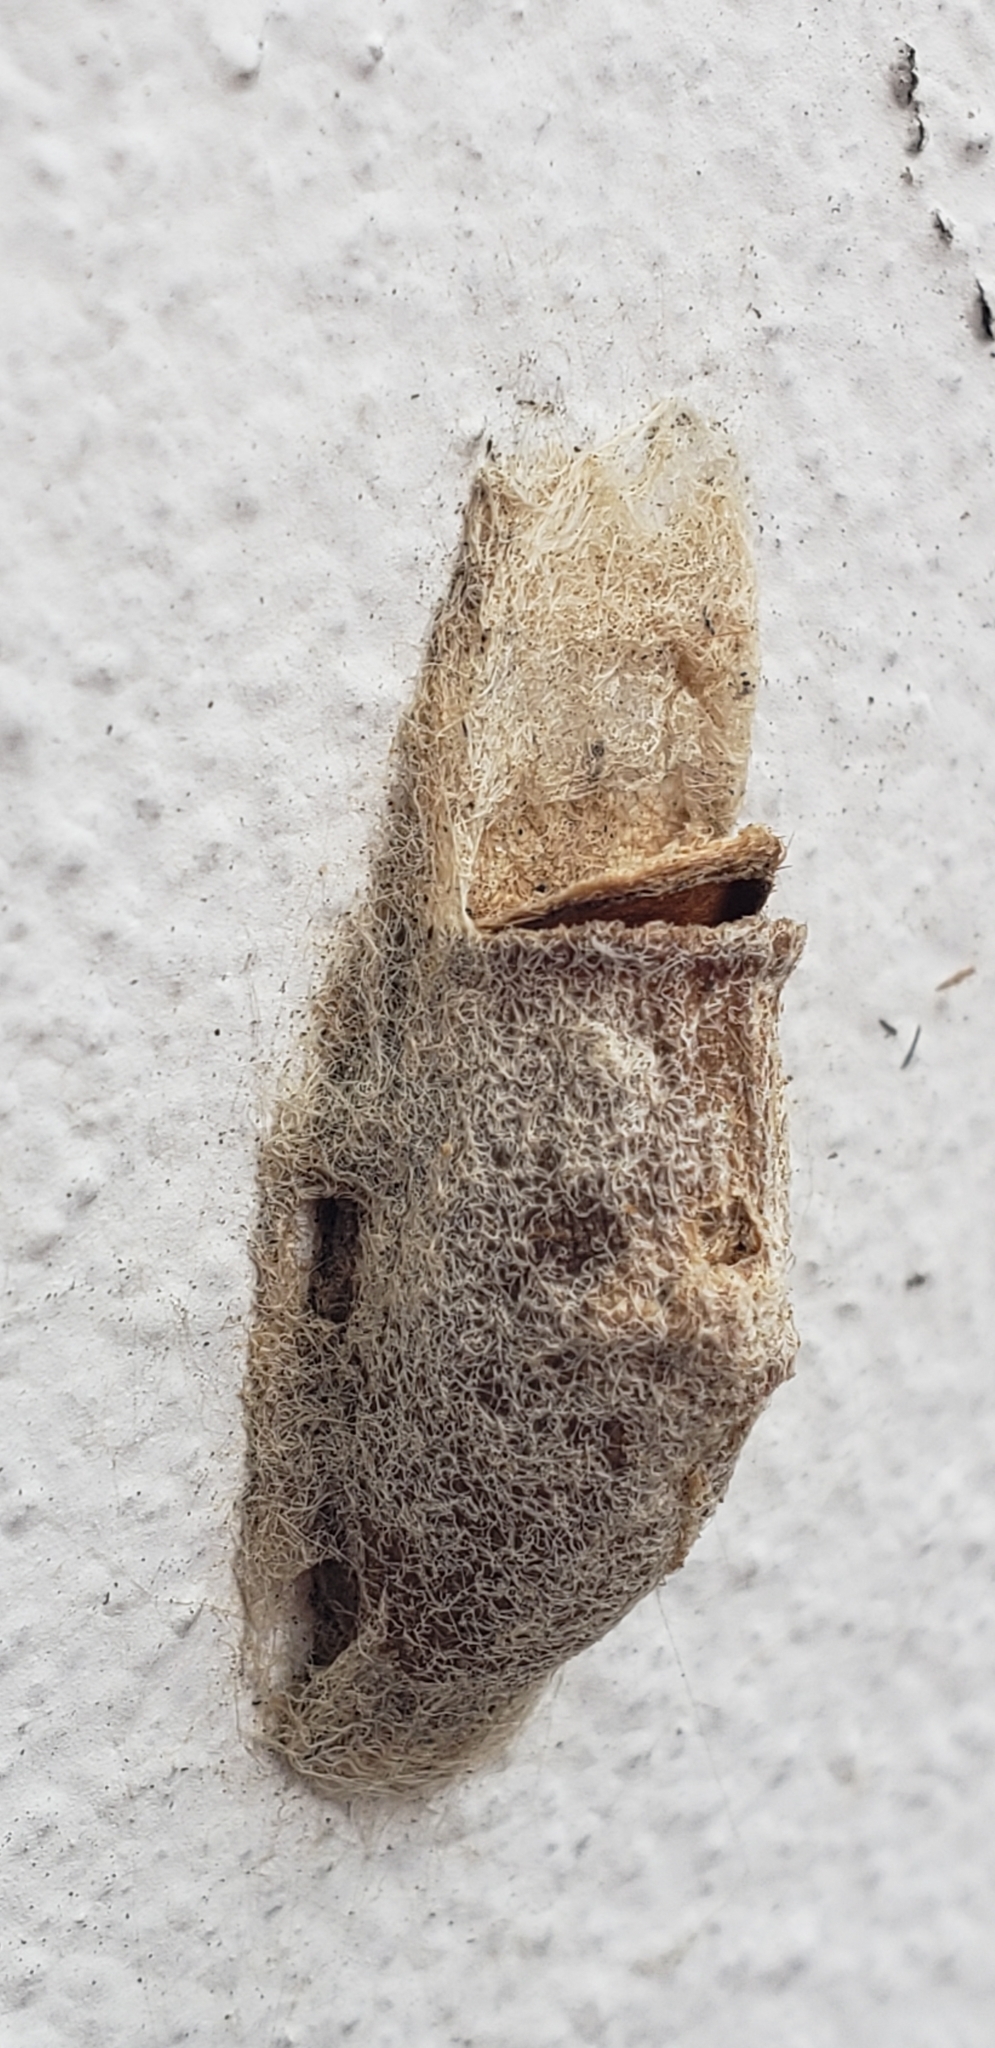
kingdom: Animalia
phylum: Arthropoda
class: Insecta
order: Lepidoptera
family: Megalopygidae
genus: Megalopyge
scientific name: Megalopyge
